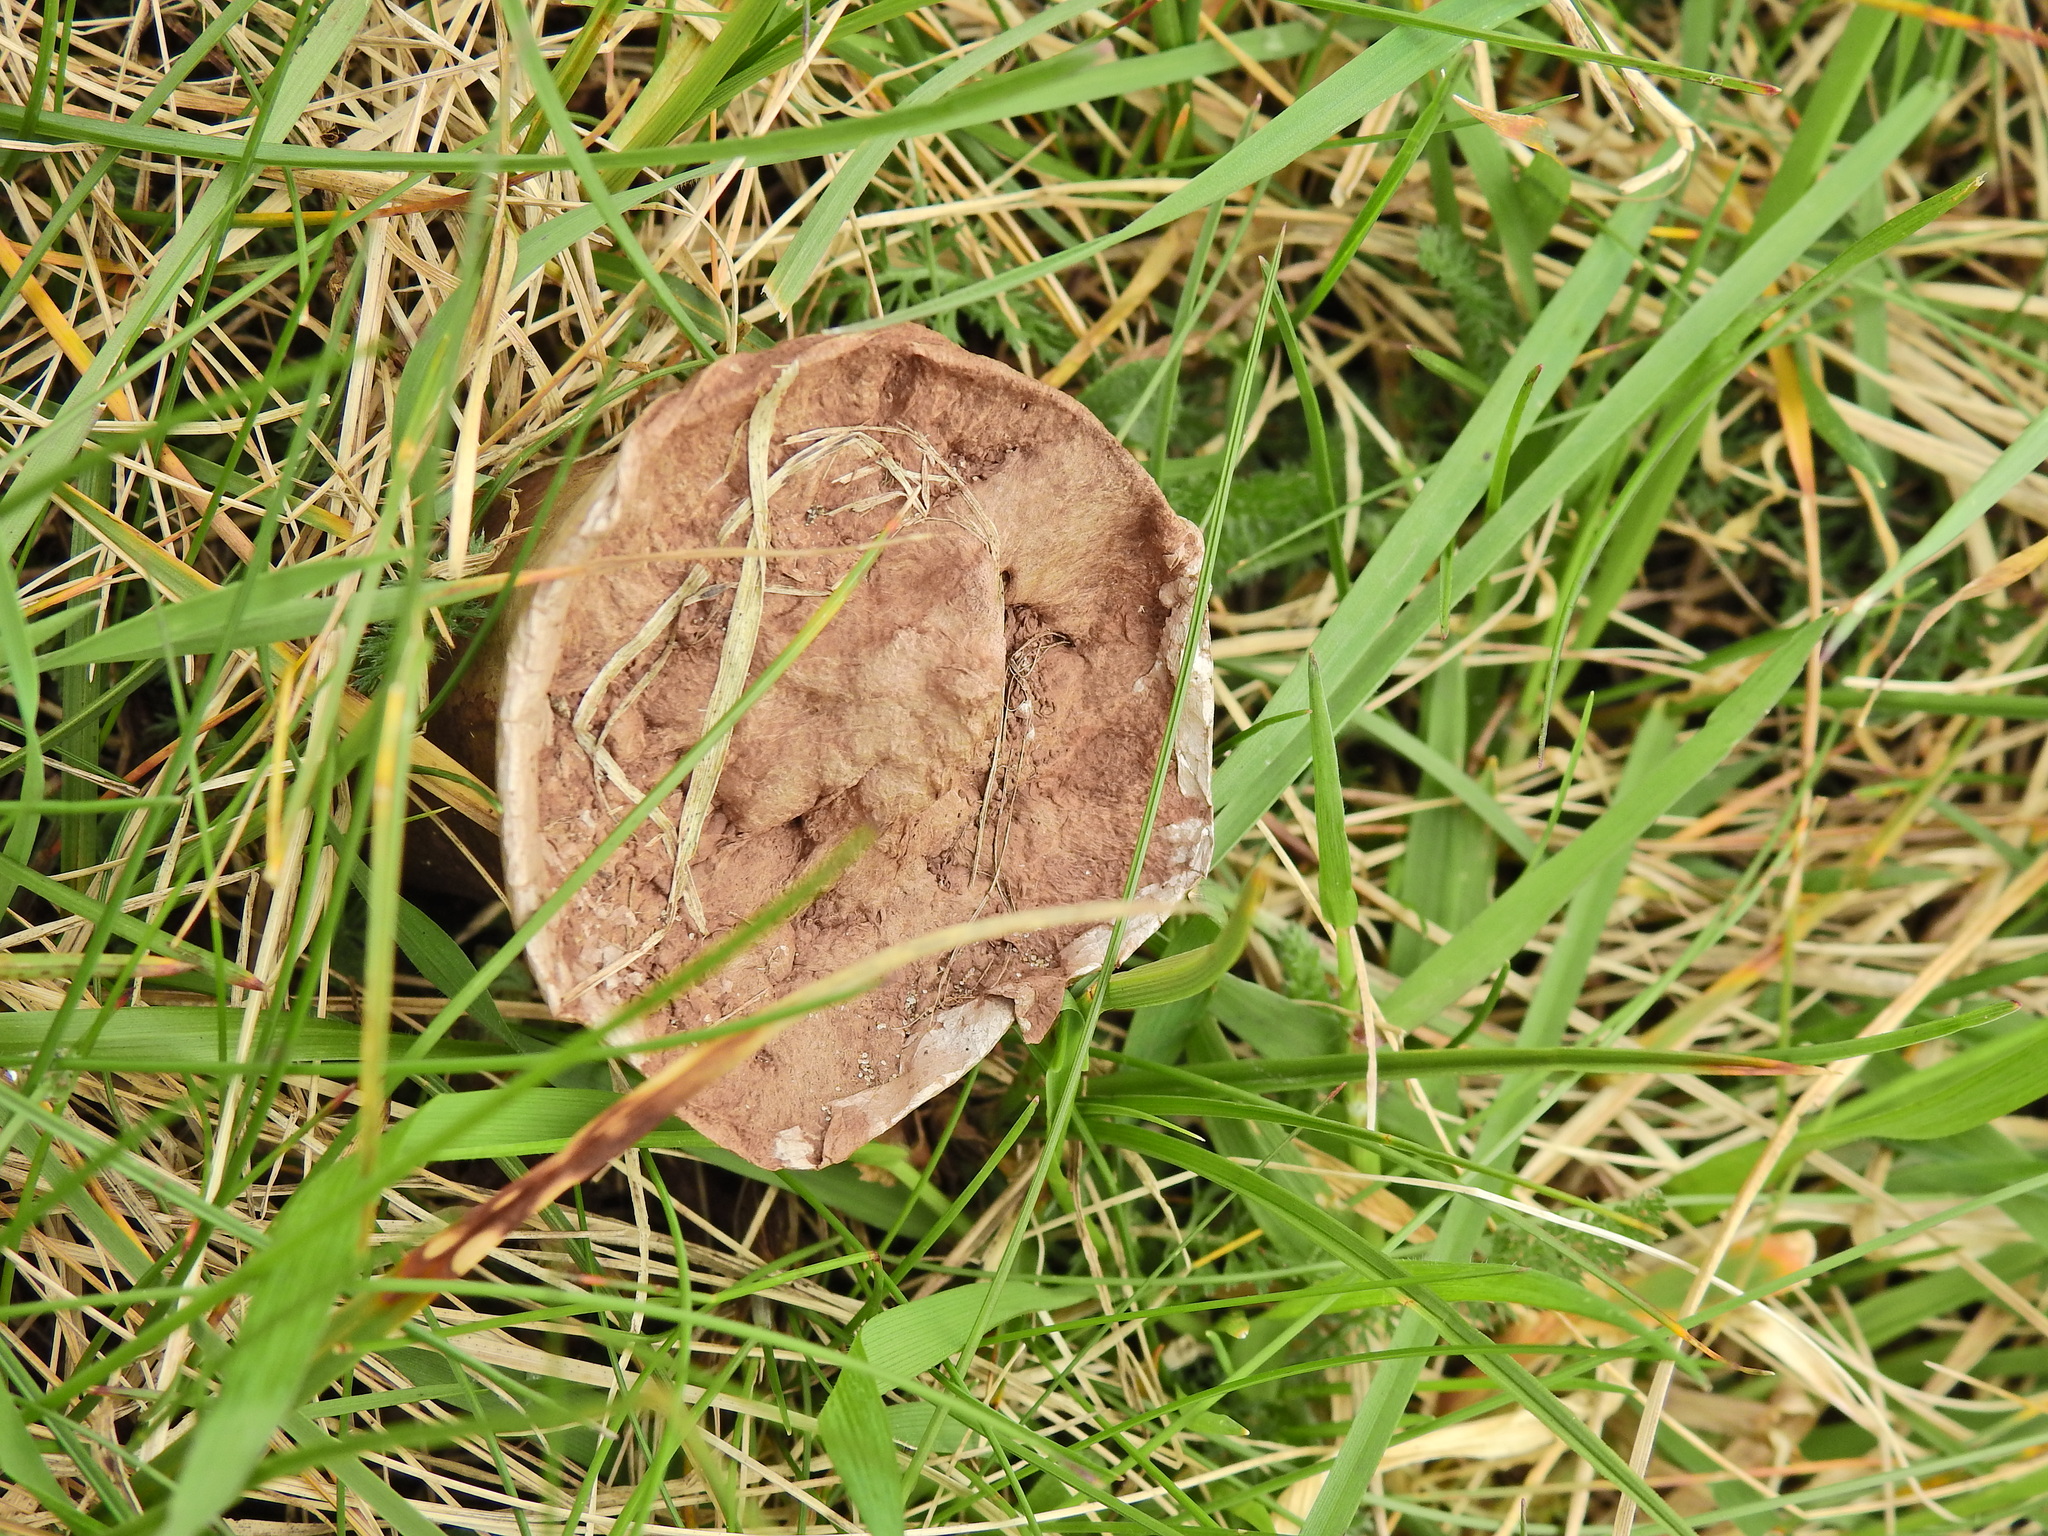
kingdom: Fungi
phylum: Basidiomycota
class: Agaricomycetes
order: Agaricales
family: Lycoperdaceae
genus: Lycoperdon
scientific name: Lycoperdon excipuliforme
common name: Pestle puffball
